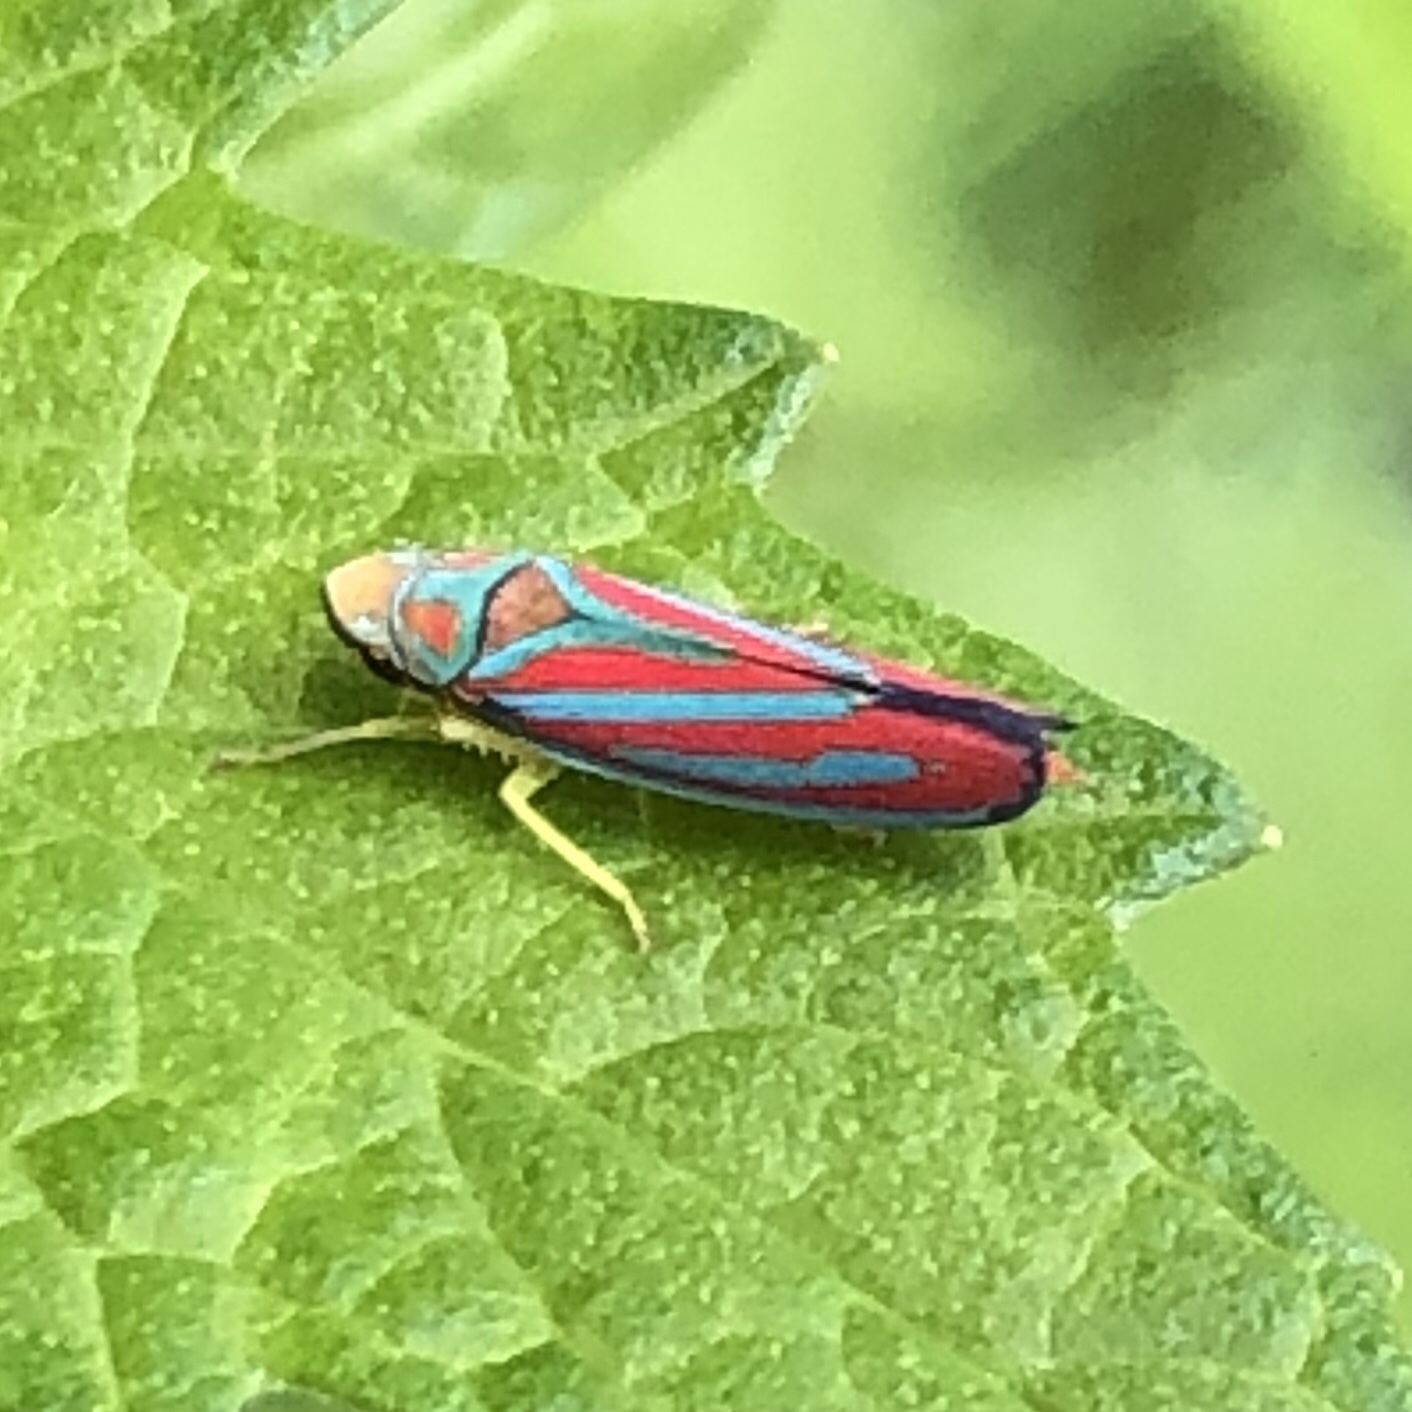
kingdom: Animalia
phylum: Arthropoda
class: Insecta
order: Hemiptera
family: Cicadellidae
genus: Graphocephala
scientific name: Graphocephala coccinea
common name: Candy-striped leafhopper
